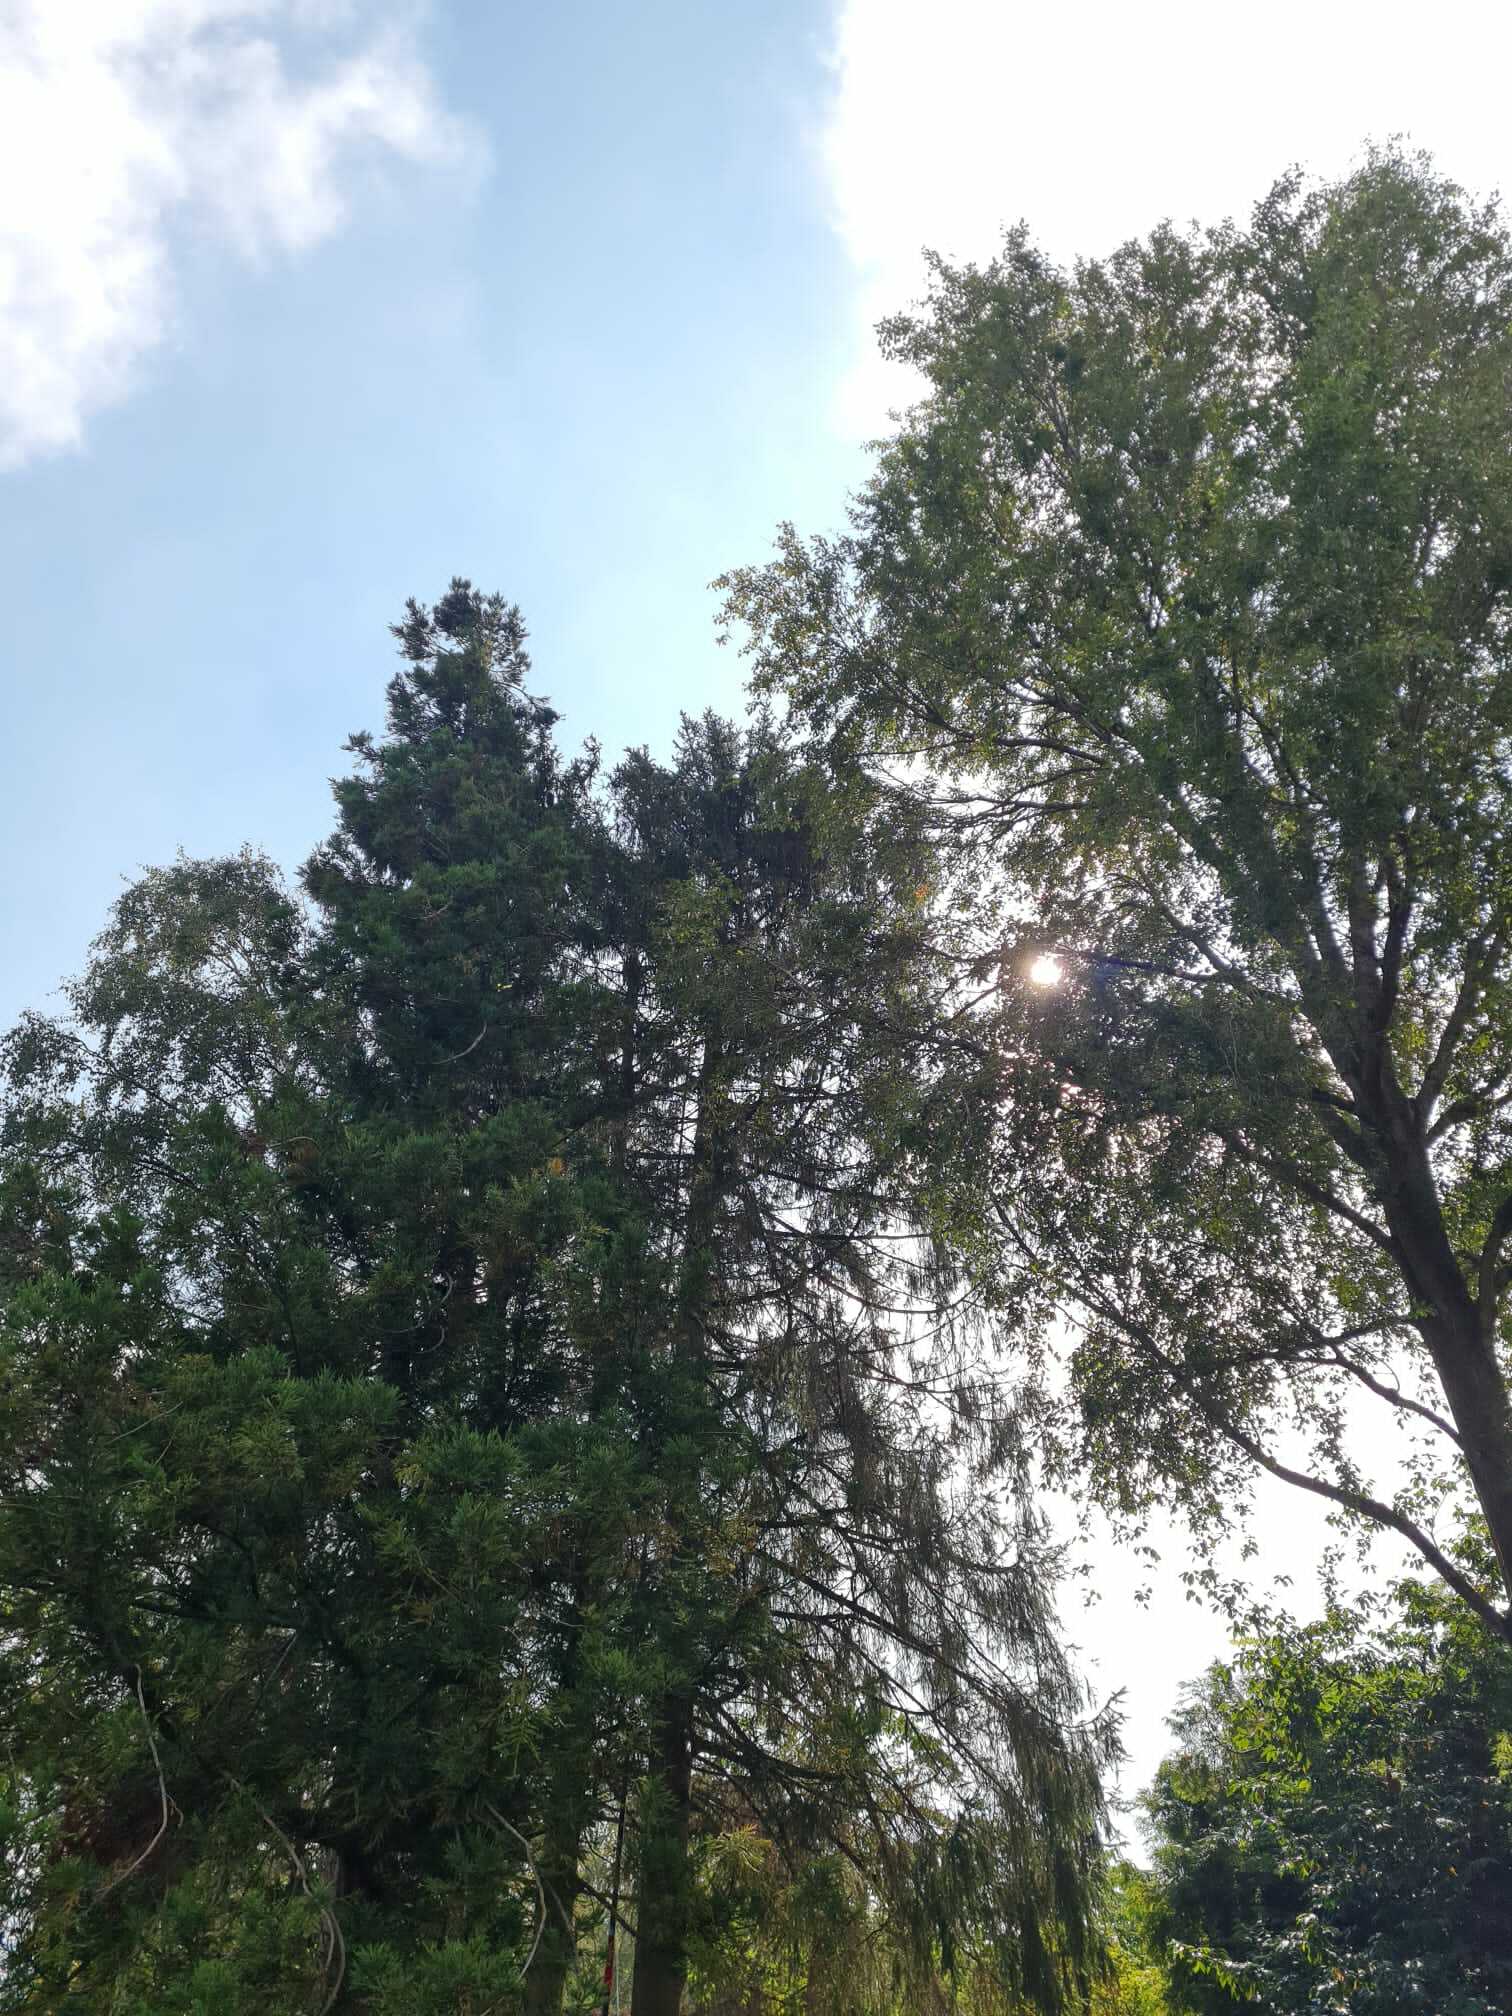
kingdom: Animalia
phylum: Arthropoda
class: Insecta
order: Hymenoptera
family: Vespidae
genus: Vespa
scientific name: Vespa velutina
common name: Asian hornet
